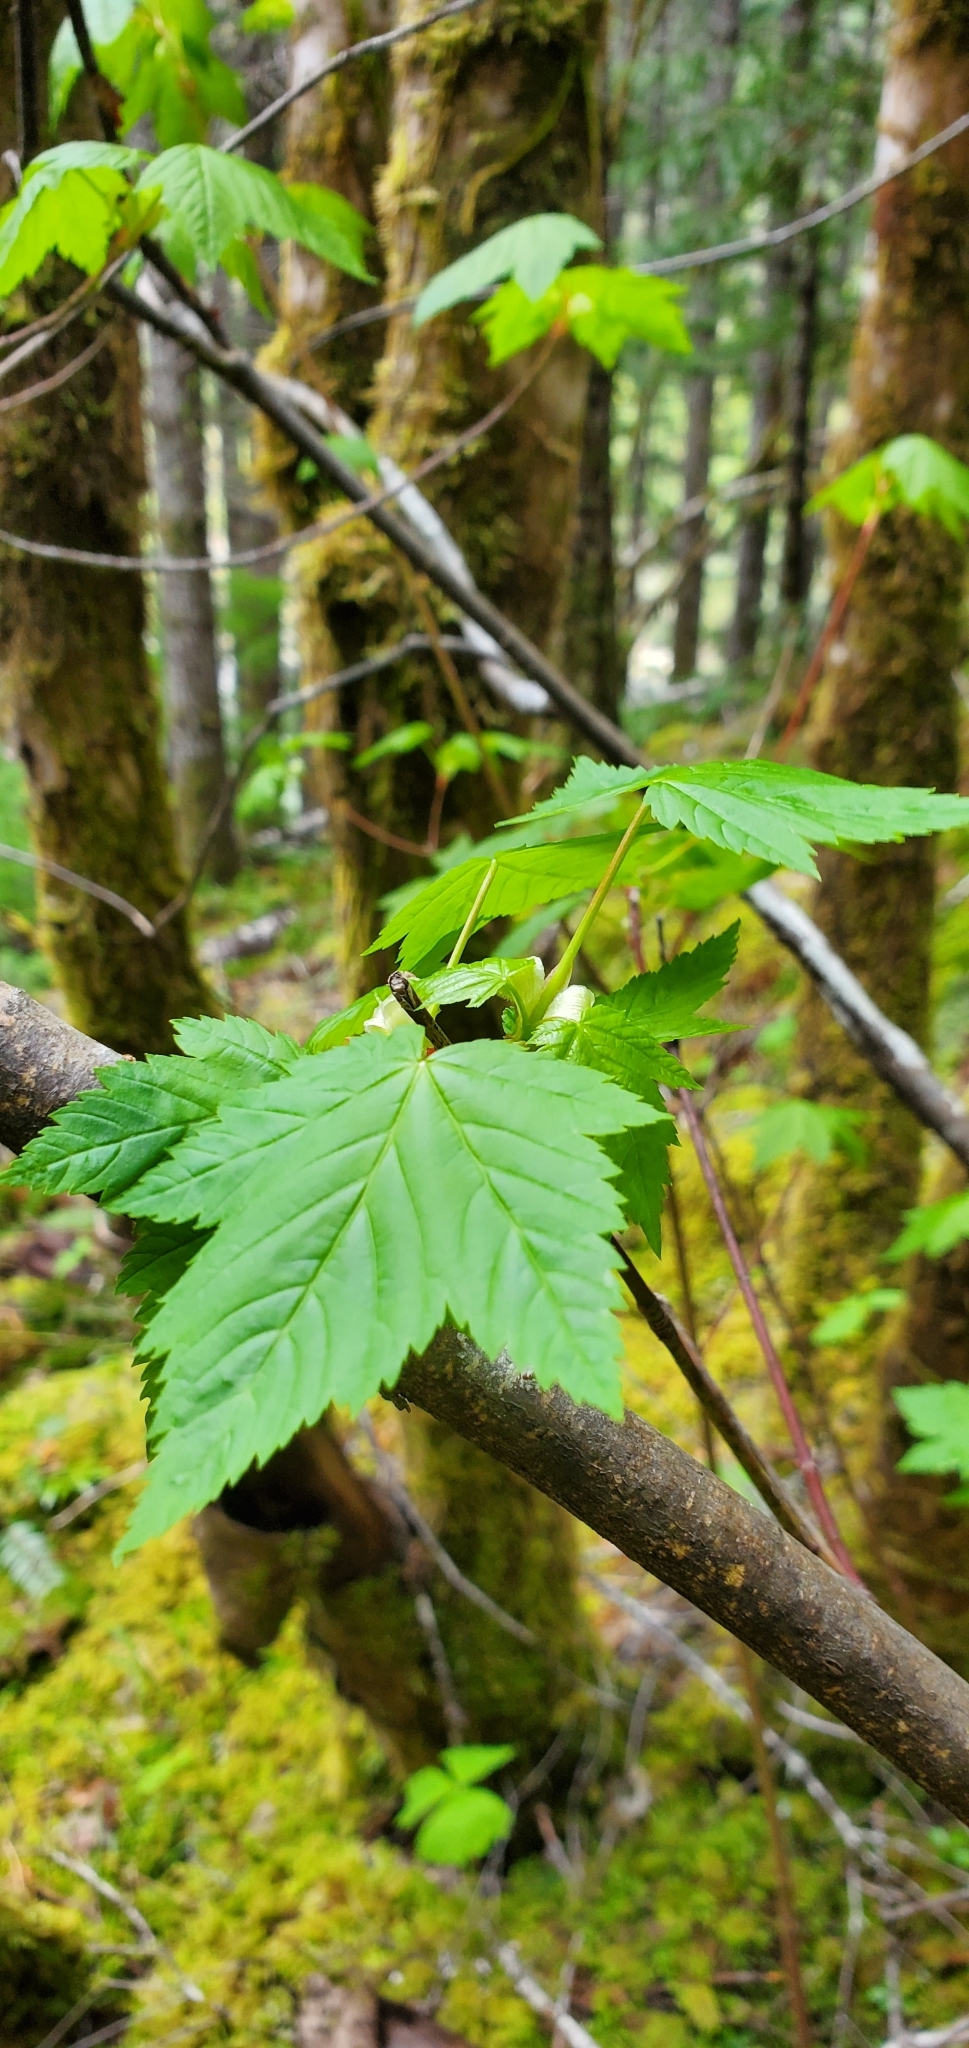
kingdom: Plantae
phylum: Tracheophyta
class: Magnoliopsida
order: Sapindales
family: Sapindaceae
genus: Acer
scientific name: Acer glabrum
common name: Rocky mountain maple
